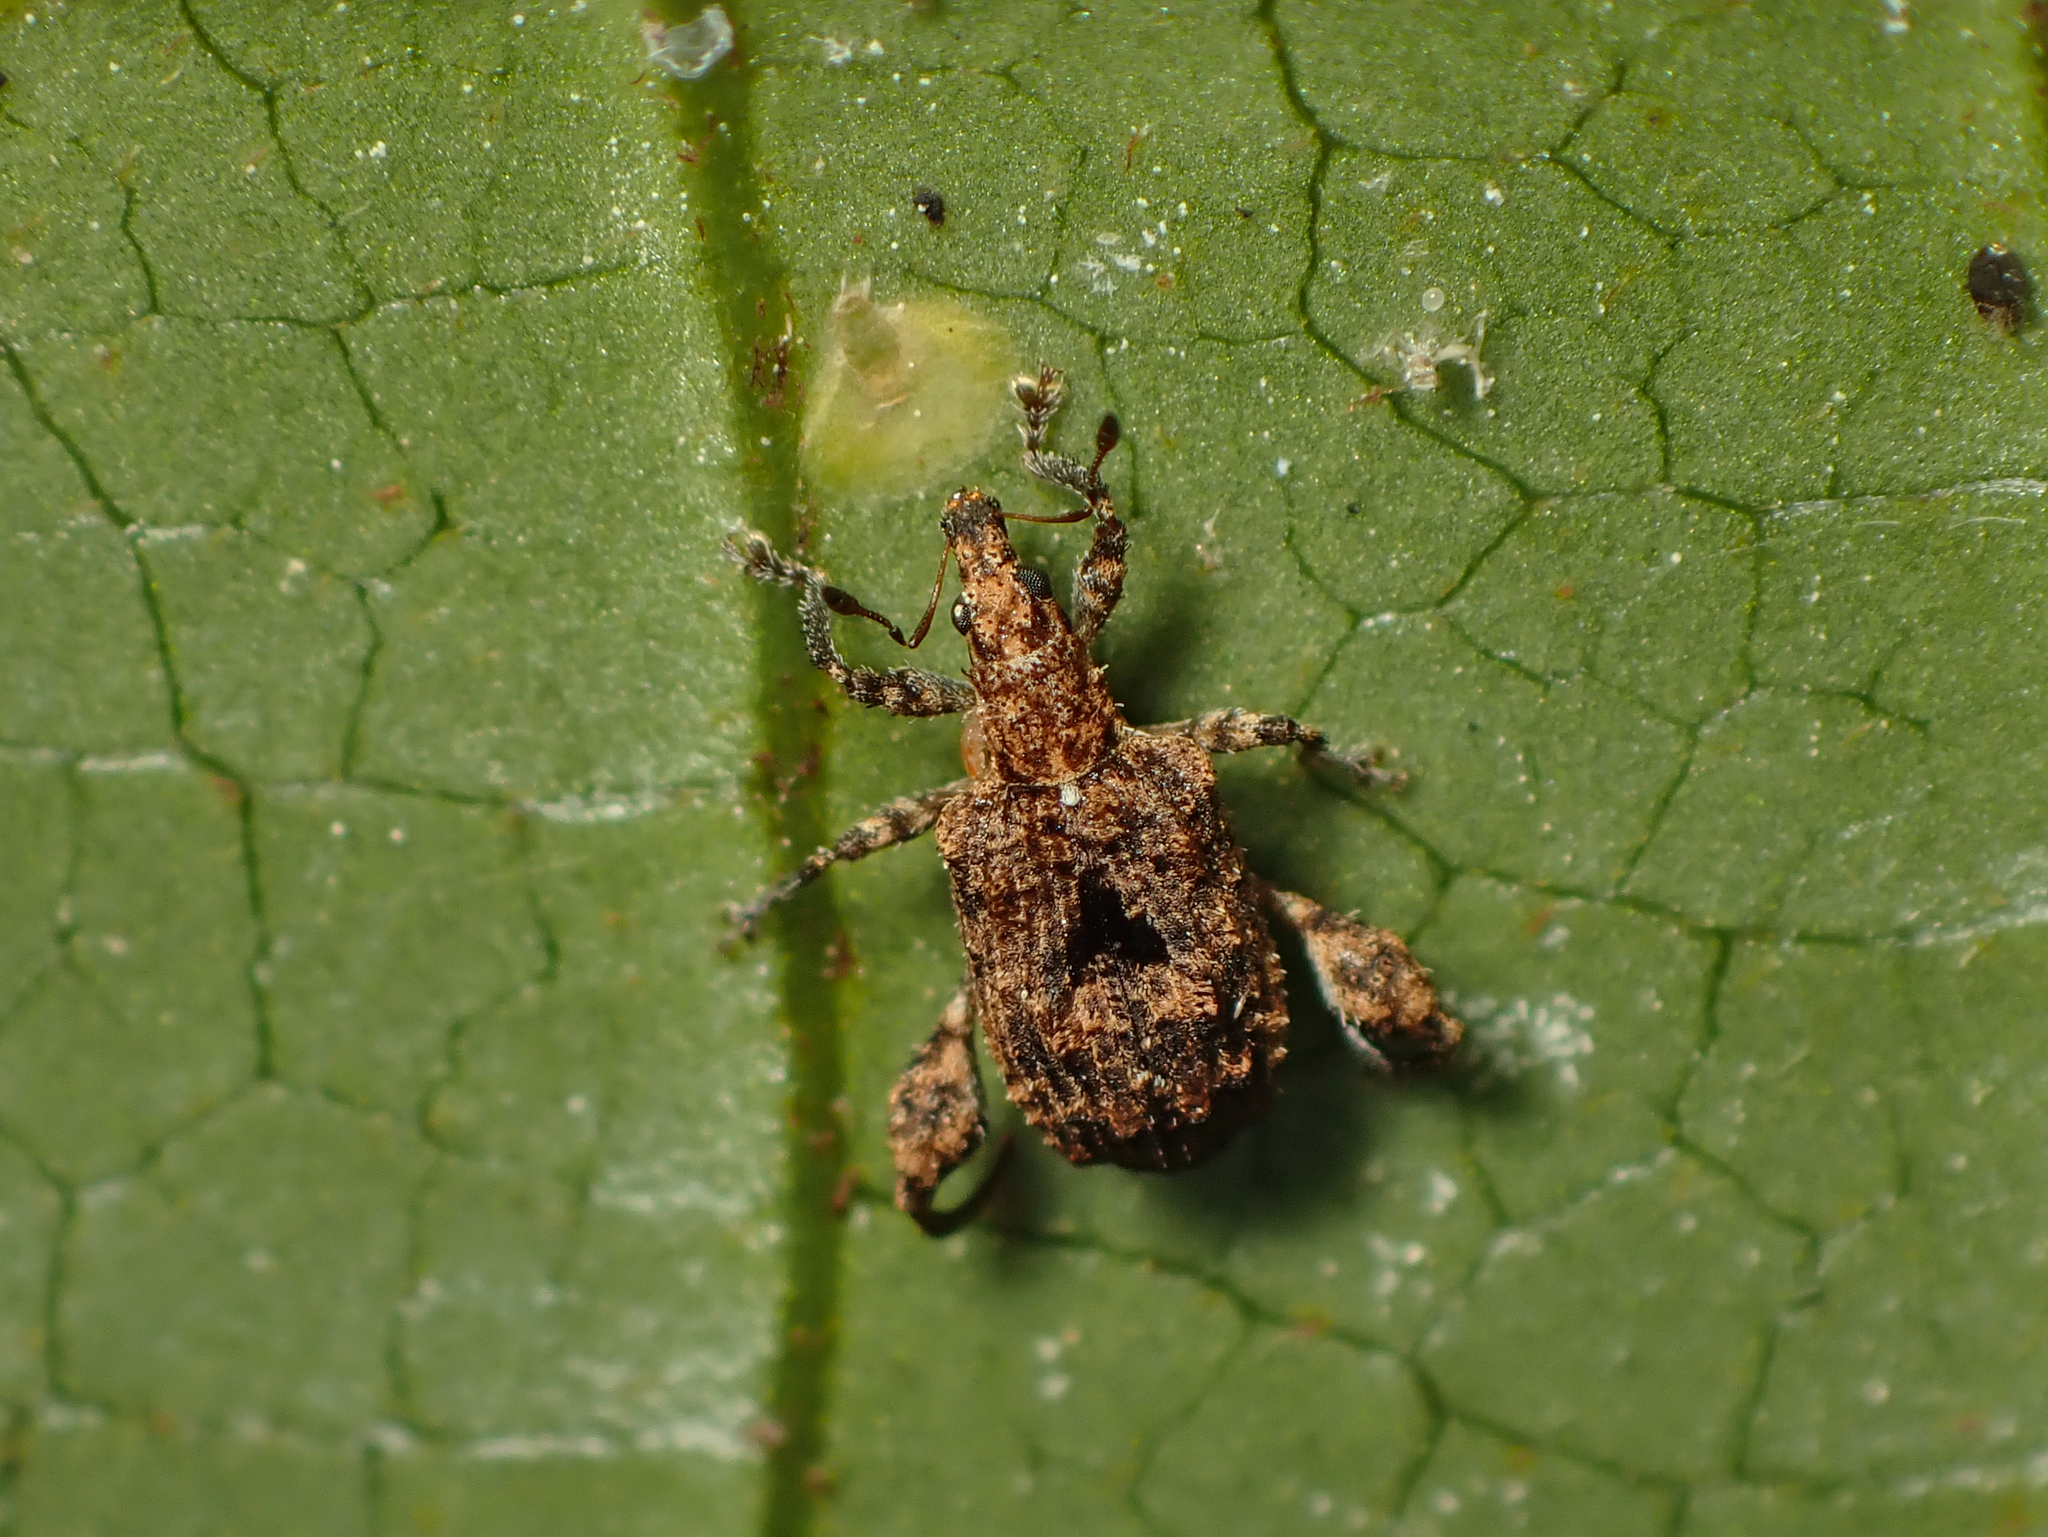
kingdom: Animalia
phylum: Arthropoda
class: Insecta
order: Coleoptera
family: Curculionidae
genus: Pactola
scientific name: Pactola variabilis
